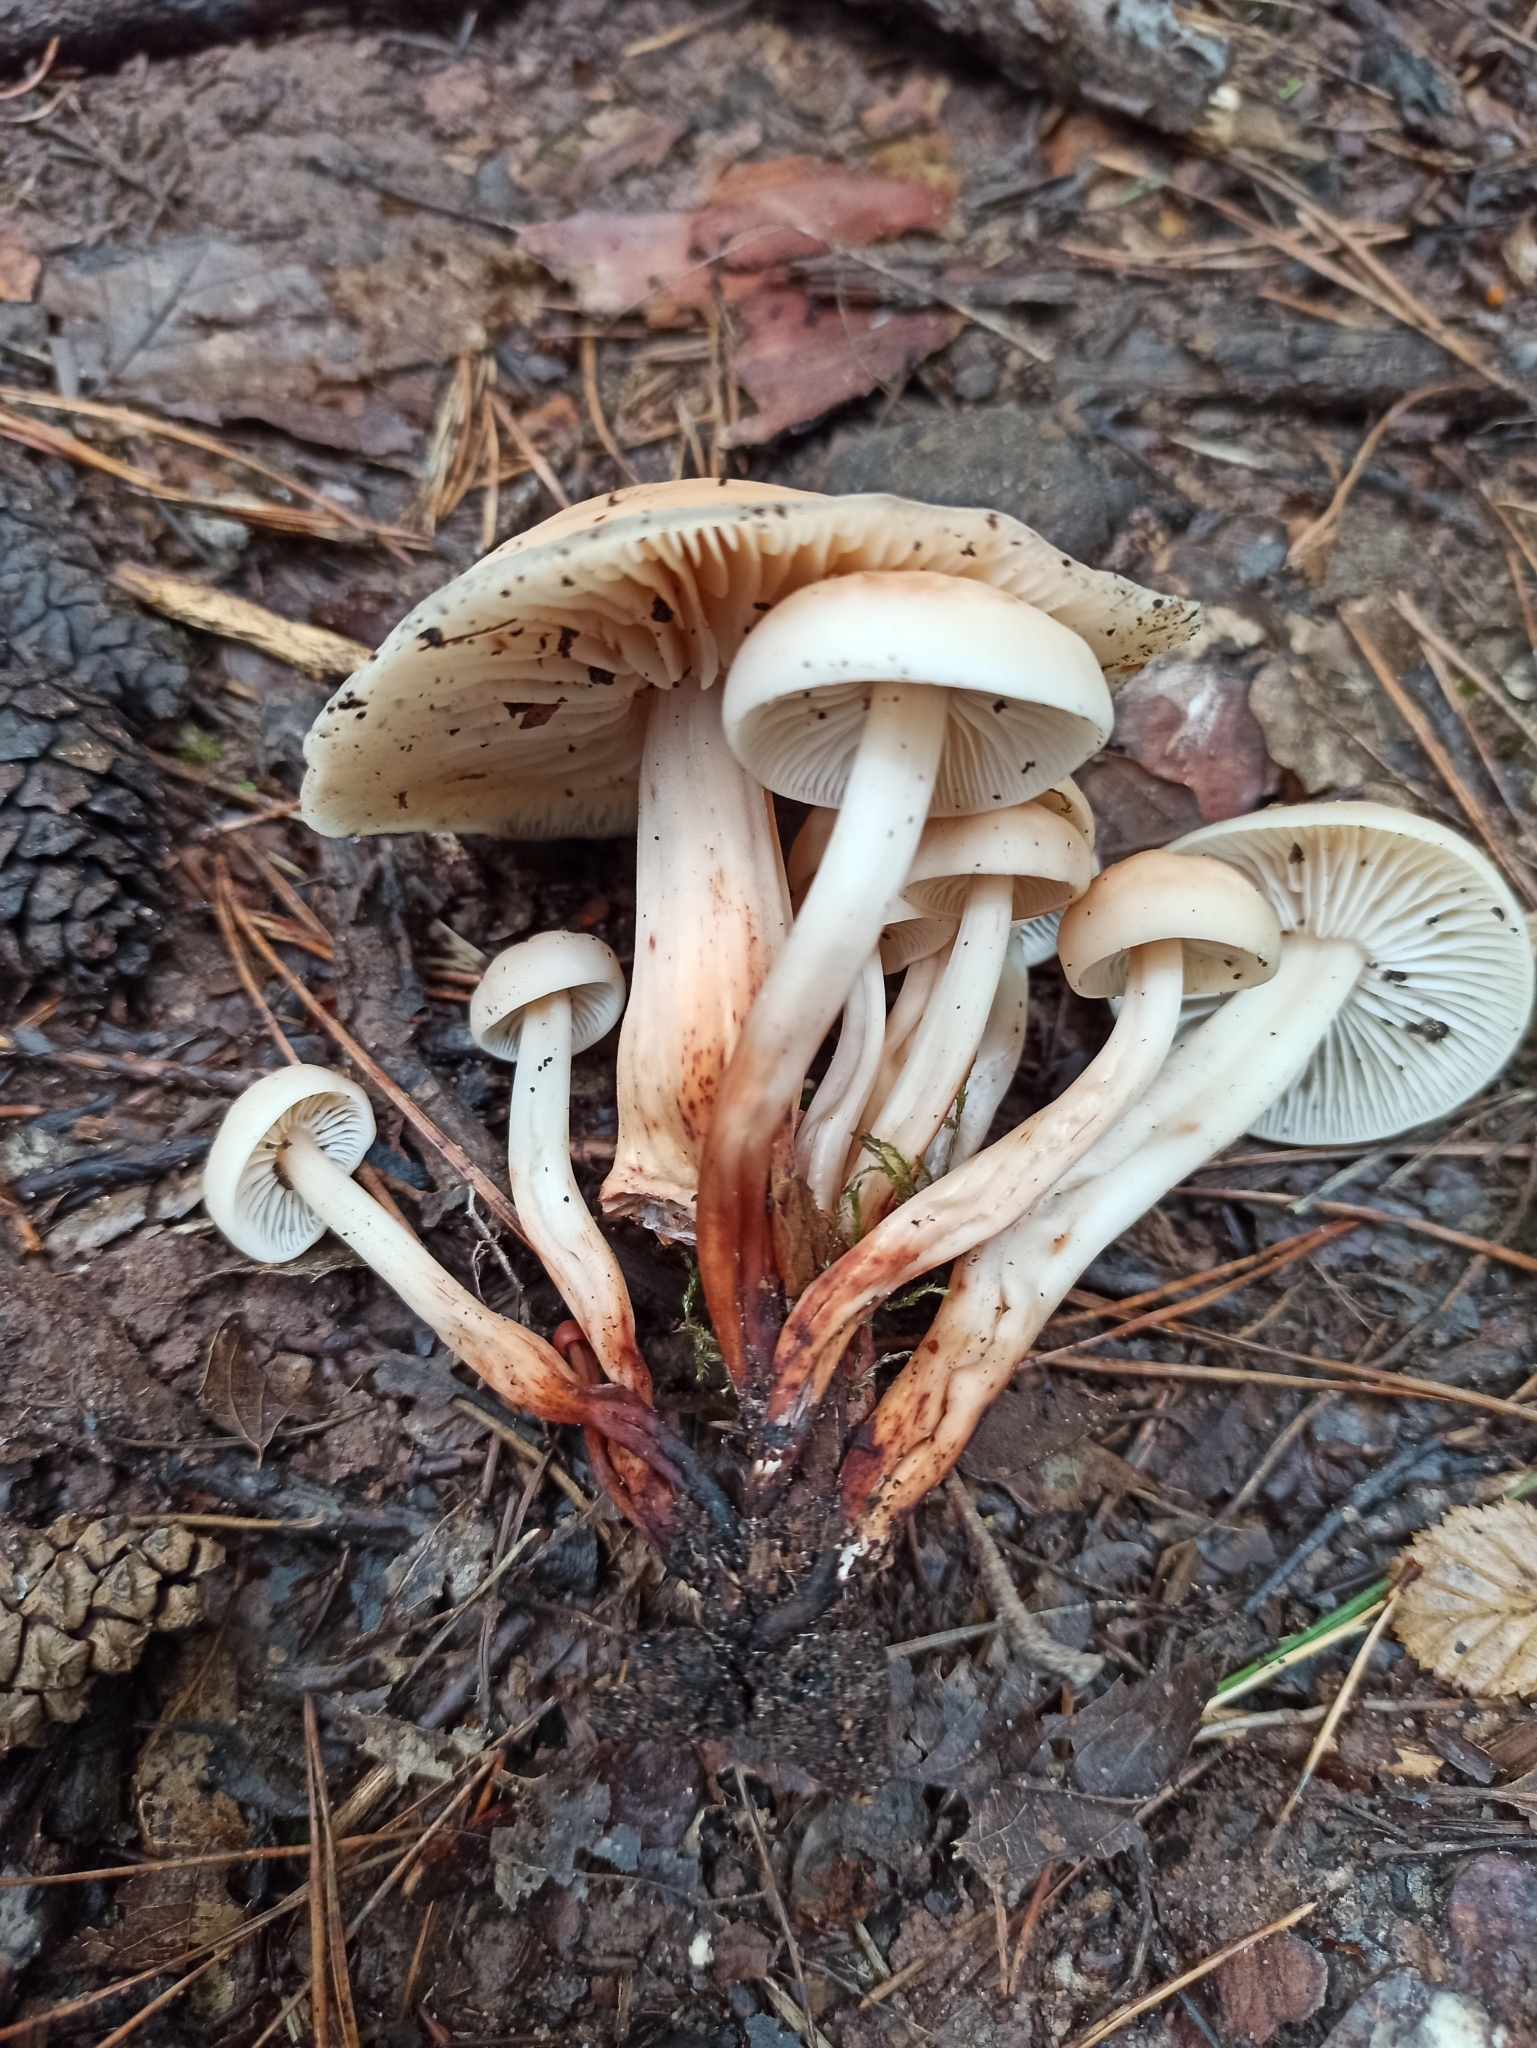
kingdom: Fungi
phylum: Basidiomycota
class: Agaricomycetes
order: Agaricales
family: Omphalotaceae
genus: Gymnopus
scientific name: Gymnopus fusipes
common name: Spindle shank
